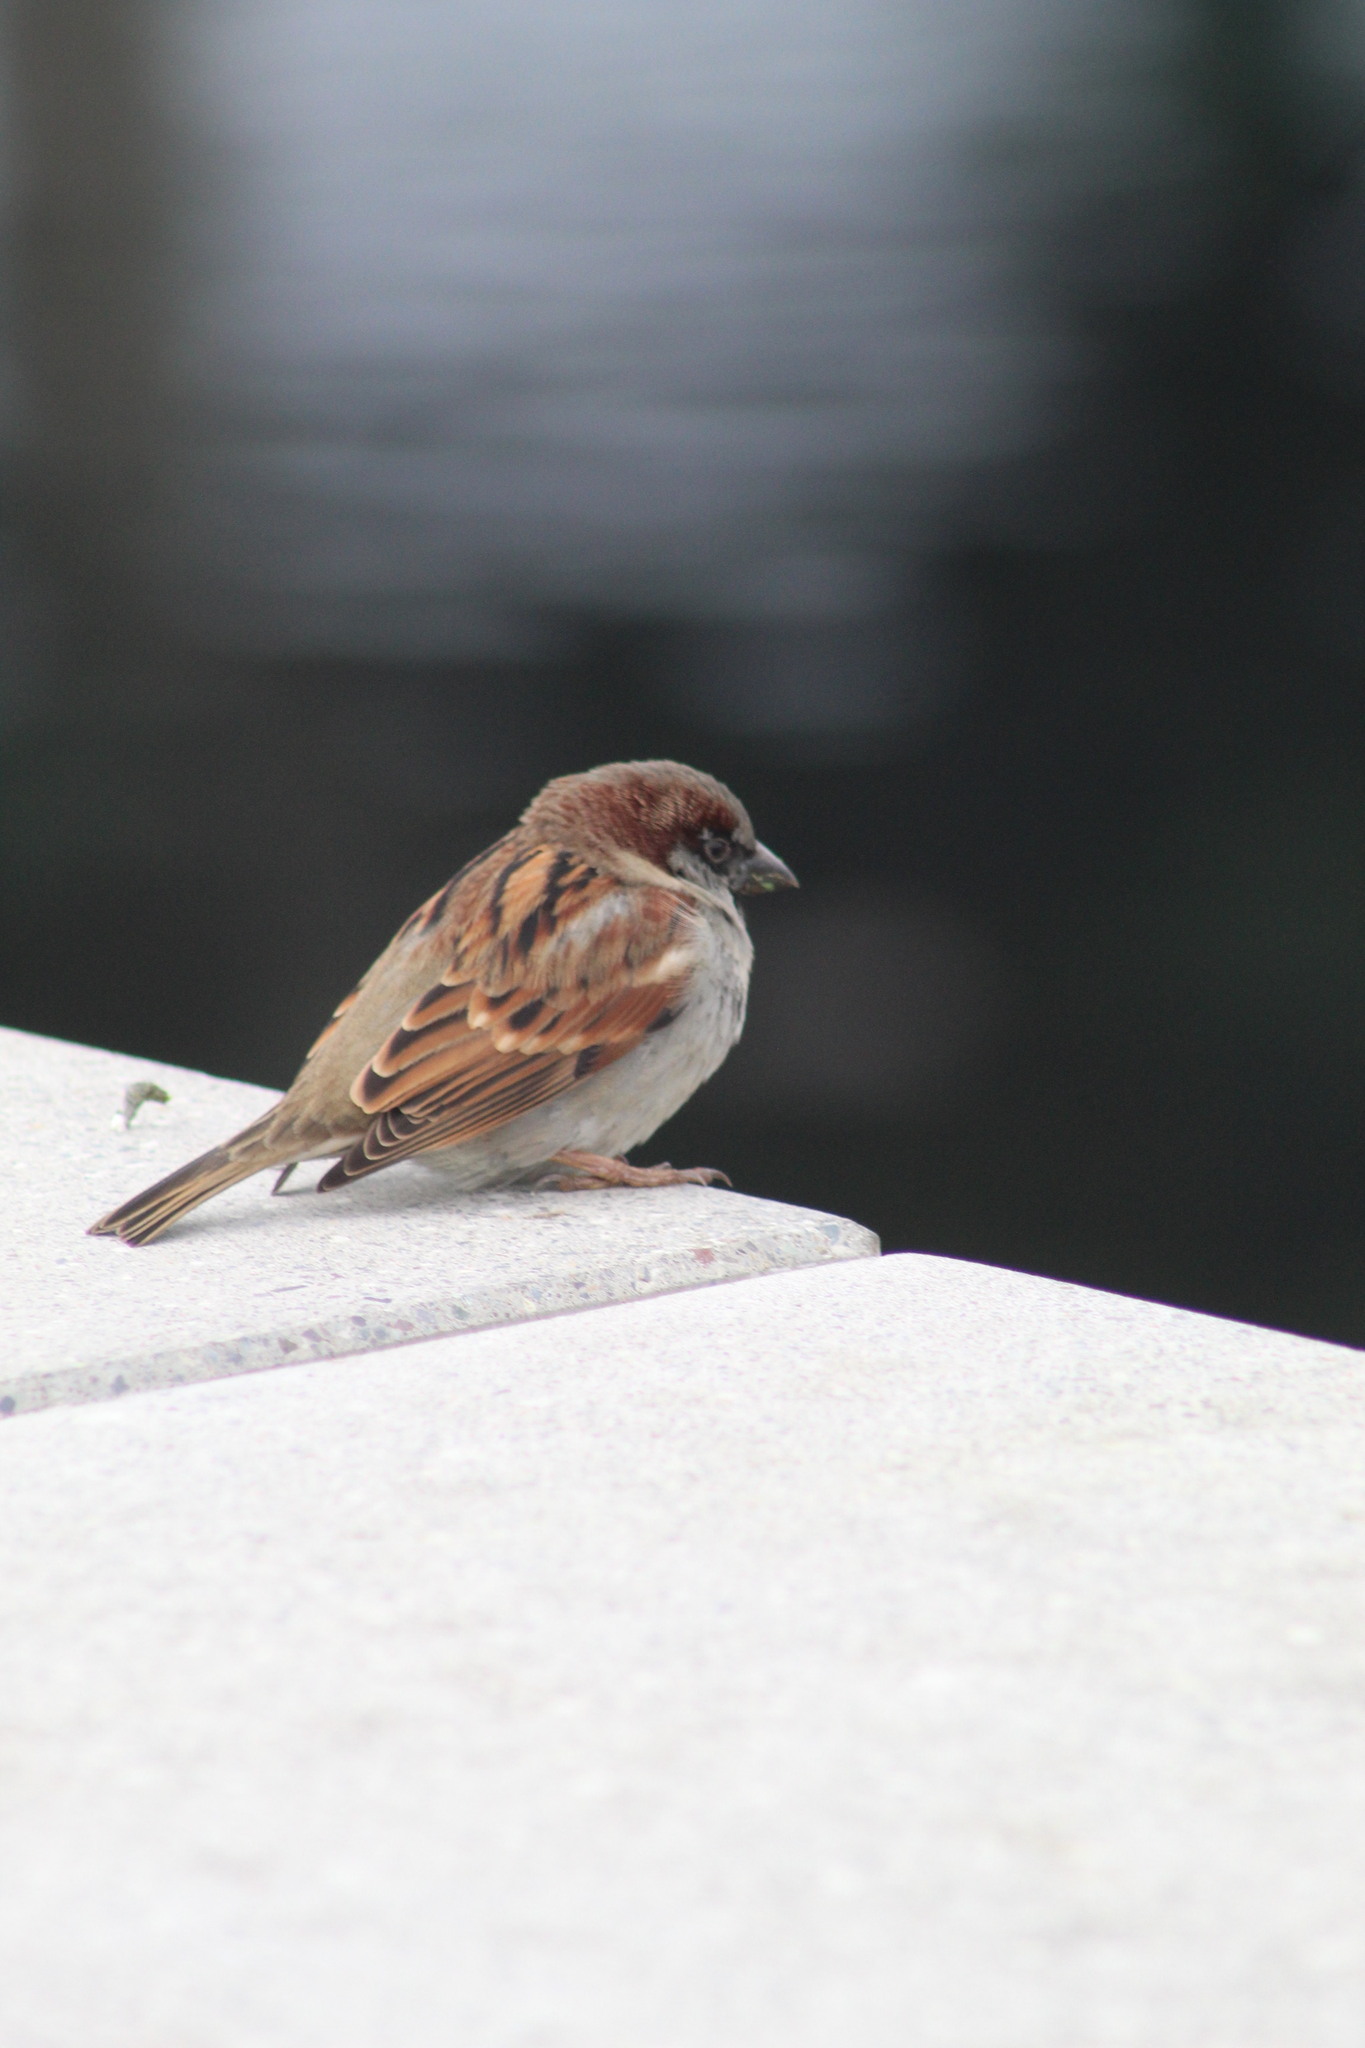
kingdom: Animalia
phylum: Chordata
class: Aves
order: Passeriformes
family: Passeridae
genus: Passer
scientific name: Passer domesticus
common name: House sparrow
